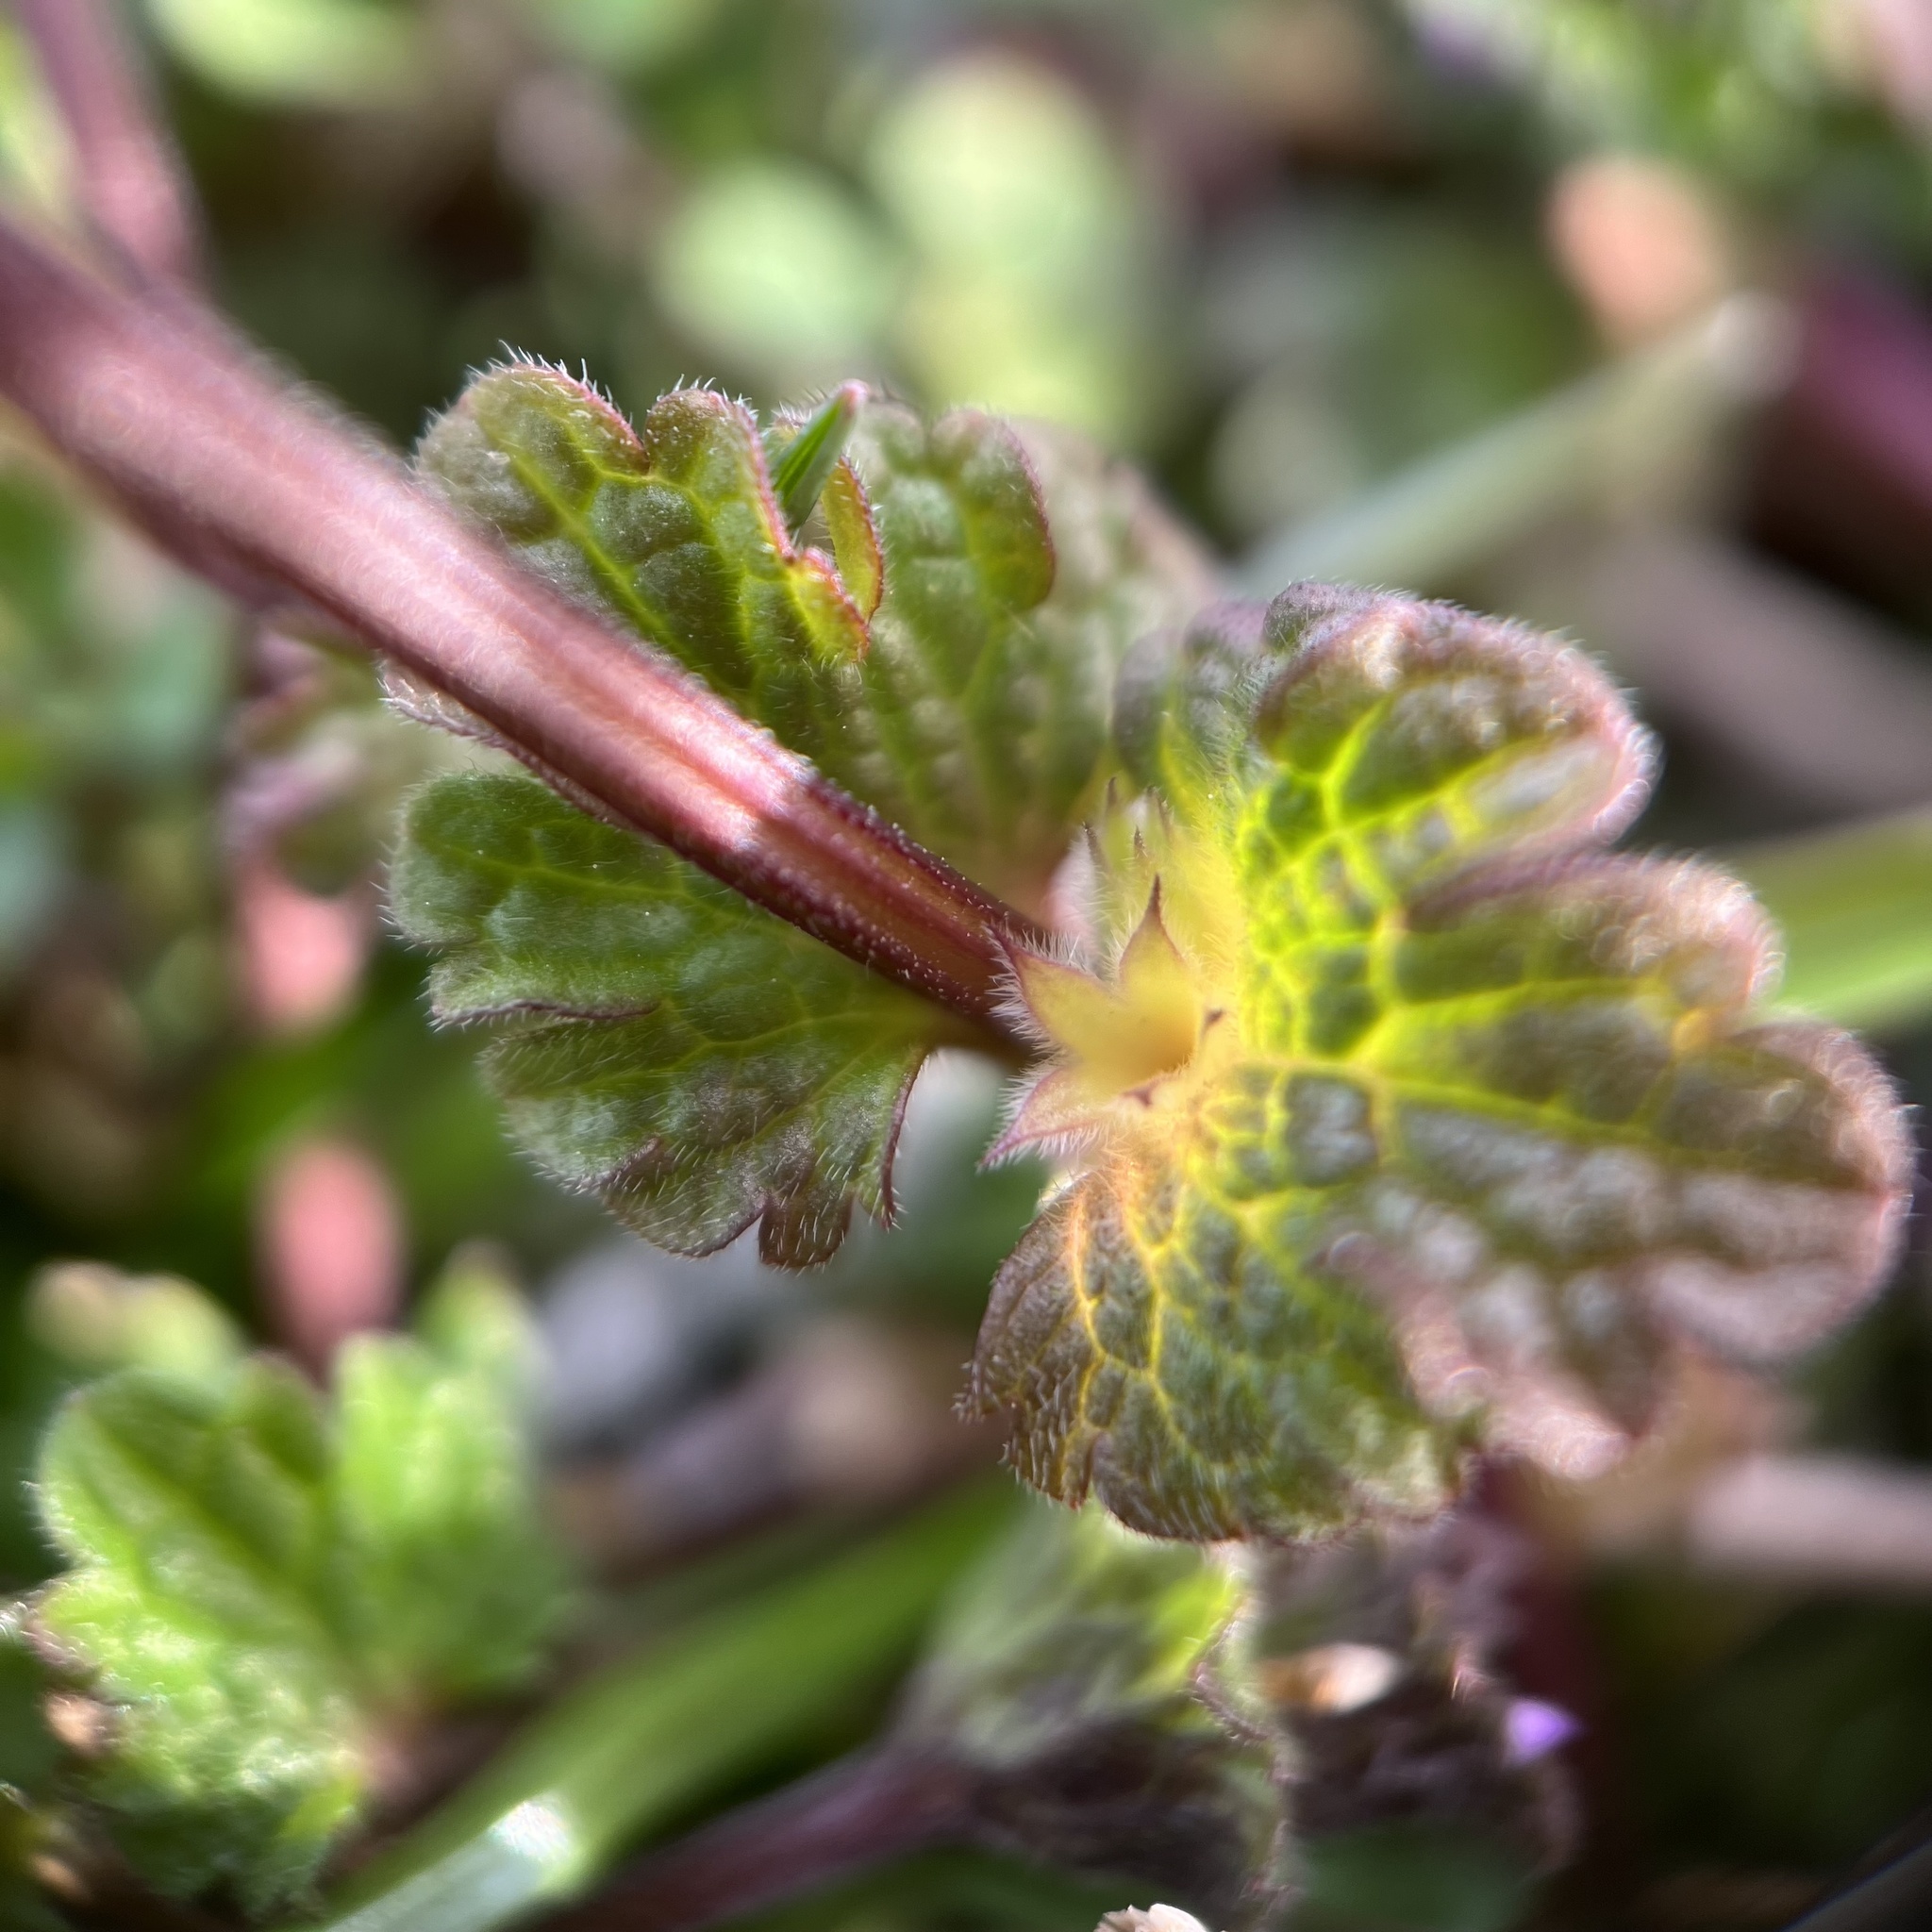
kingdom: Plantae
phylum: Tracheophyta
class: Magnoliopsida
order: Lamiales
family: Lamiaceae
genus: Lamium
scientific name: Lamium amplexicaule
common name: Henbit dead-nettle
